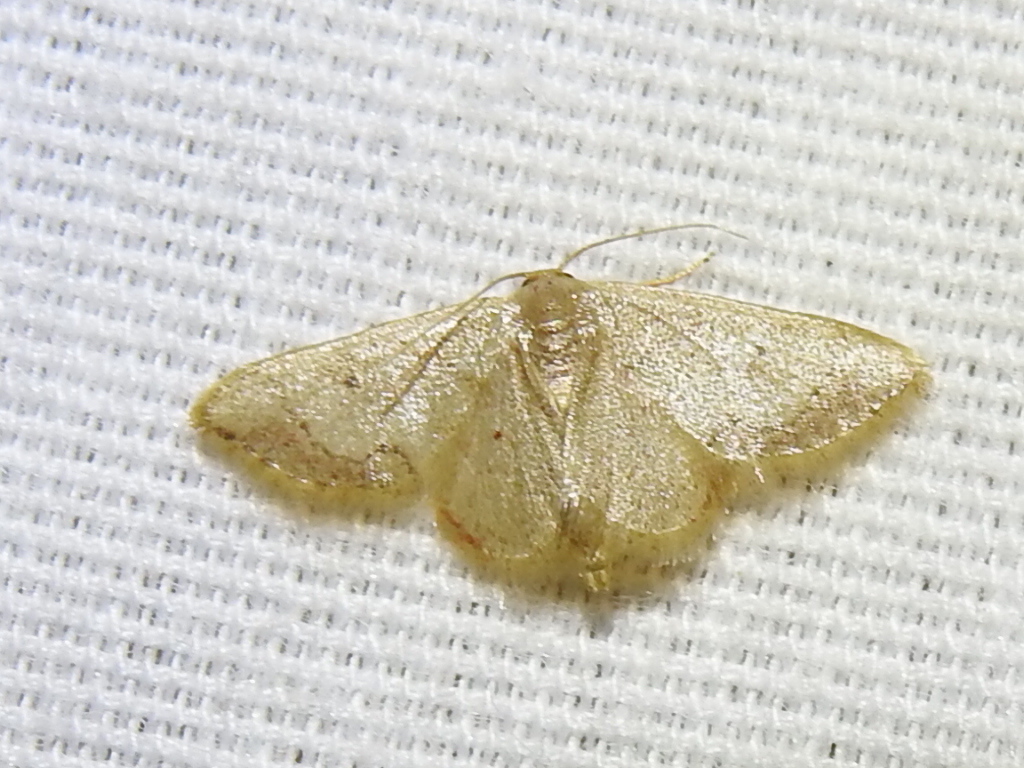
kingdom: Animalia
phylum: Arthropoda
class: Insecta
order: Lepidoptera
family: Geometridae
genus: Idaea
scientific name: Idaea demissaria
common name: Red-bordered wave
